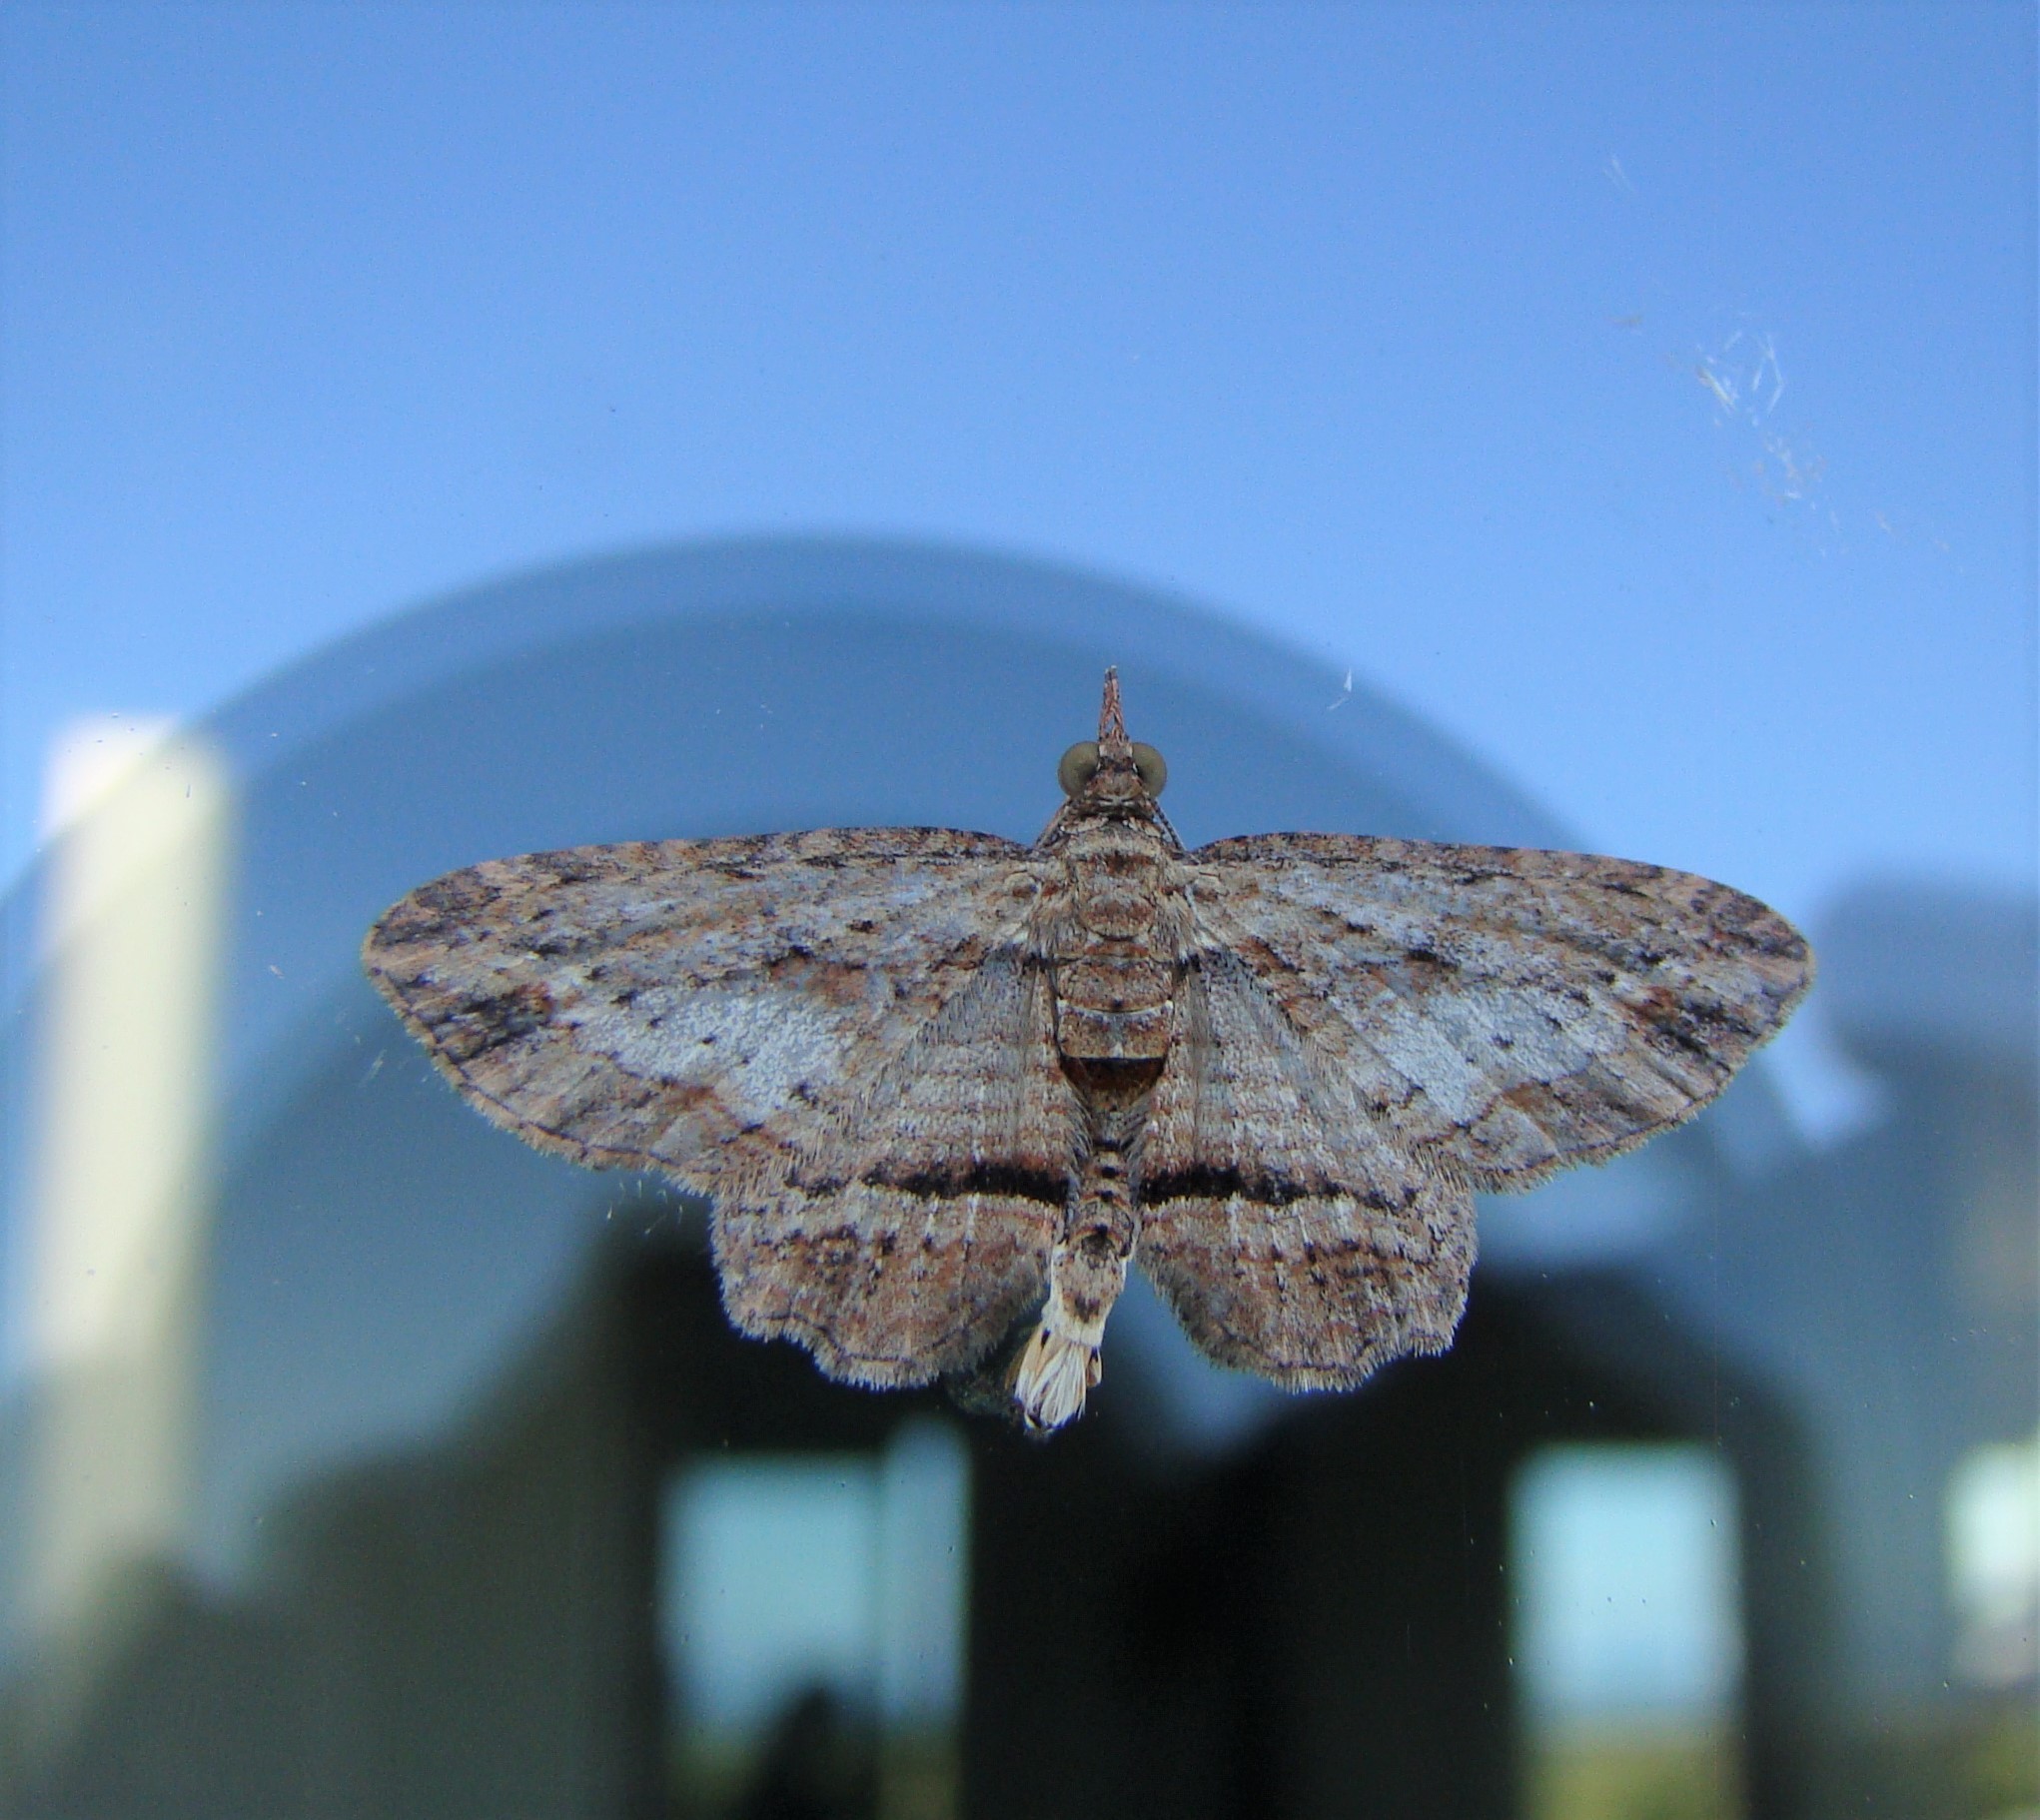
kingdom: Animalia
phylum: Arthropoda
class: Insecta
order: Lepidoptera
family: Geometridae
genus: Chloroclystis
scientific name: Chloroclystis filata
